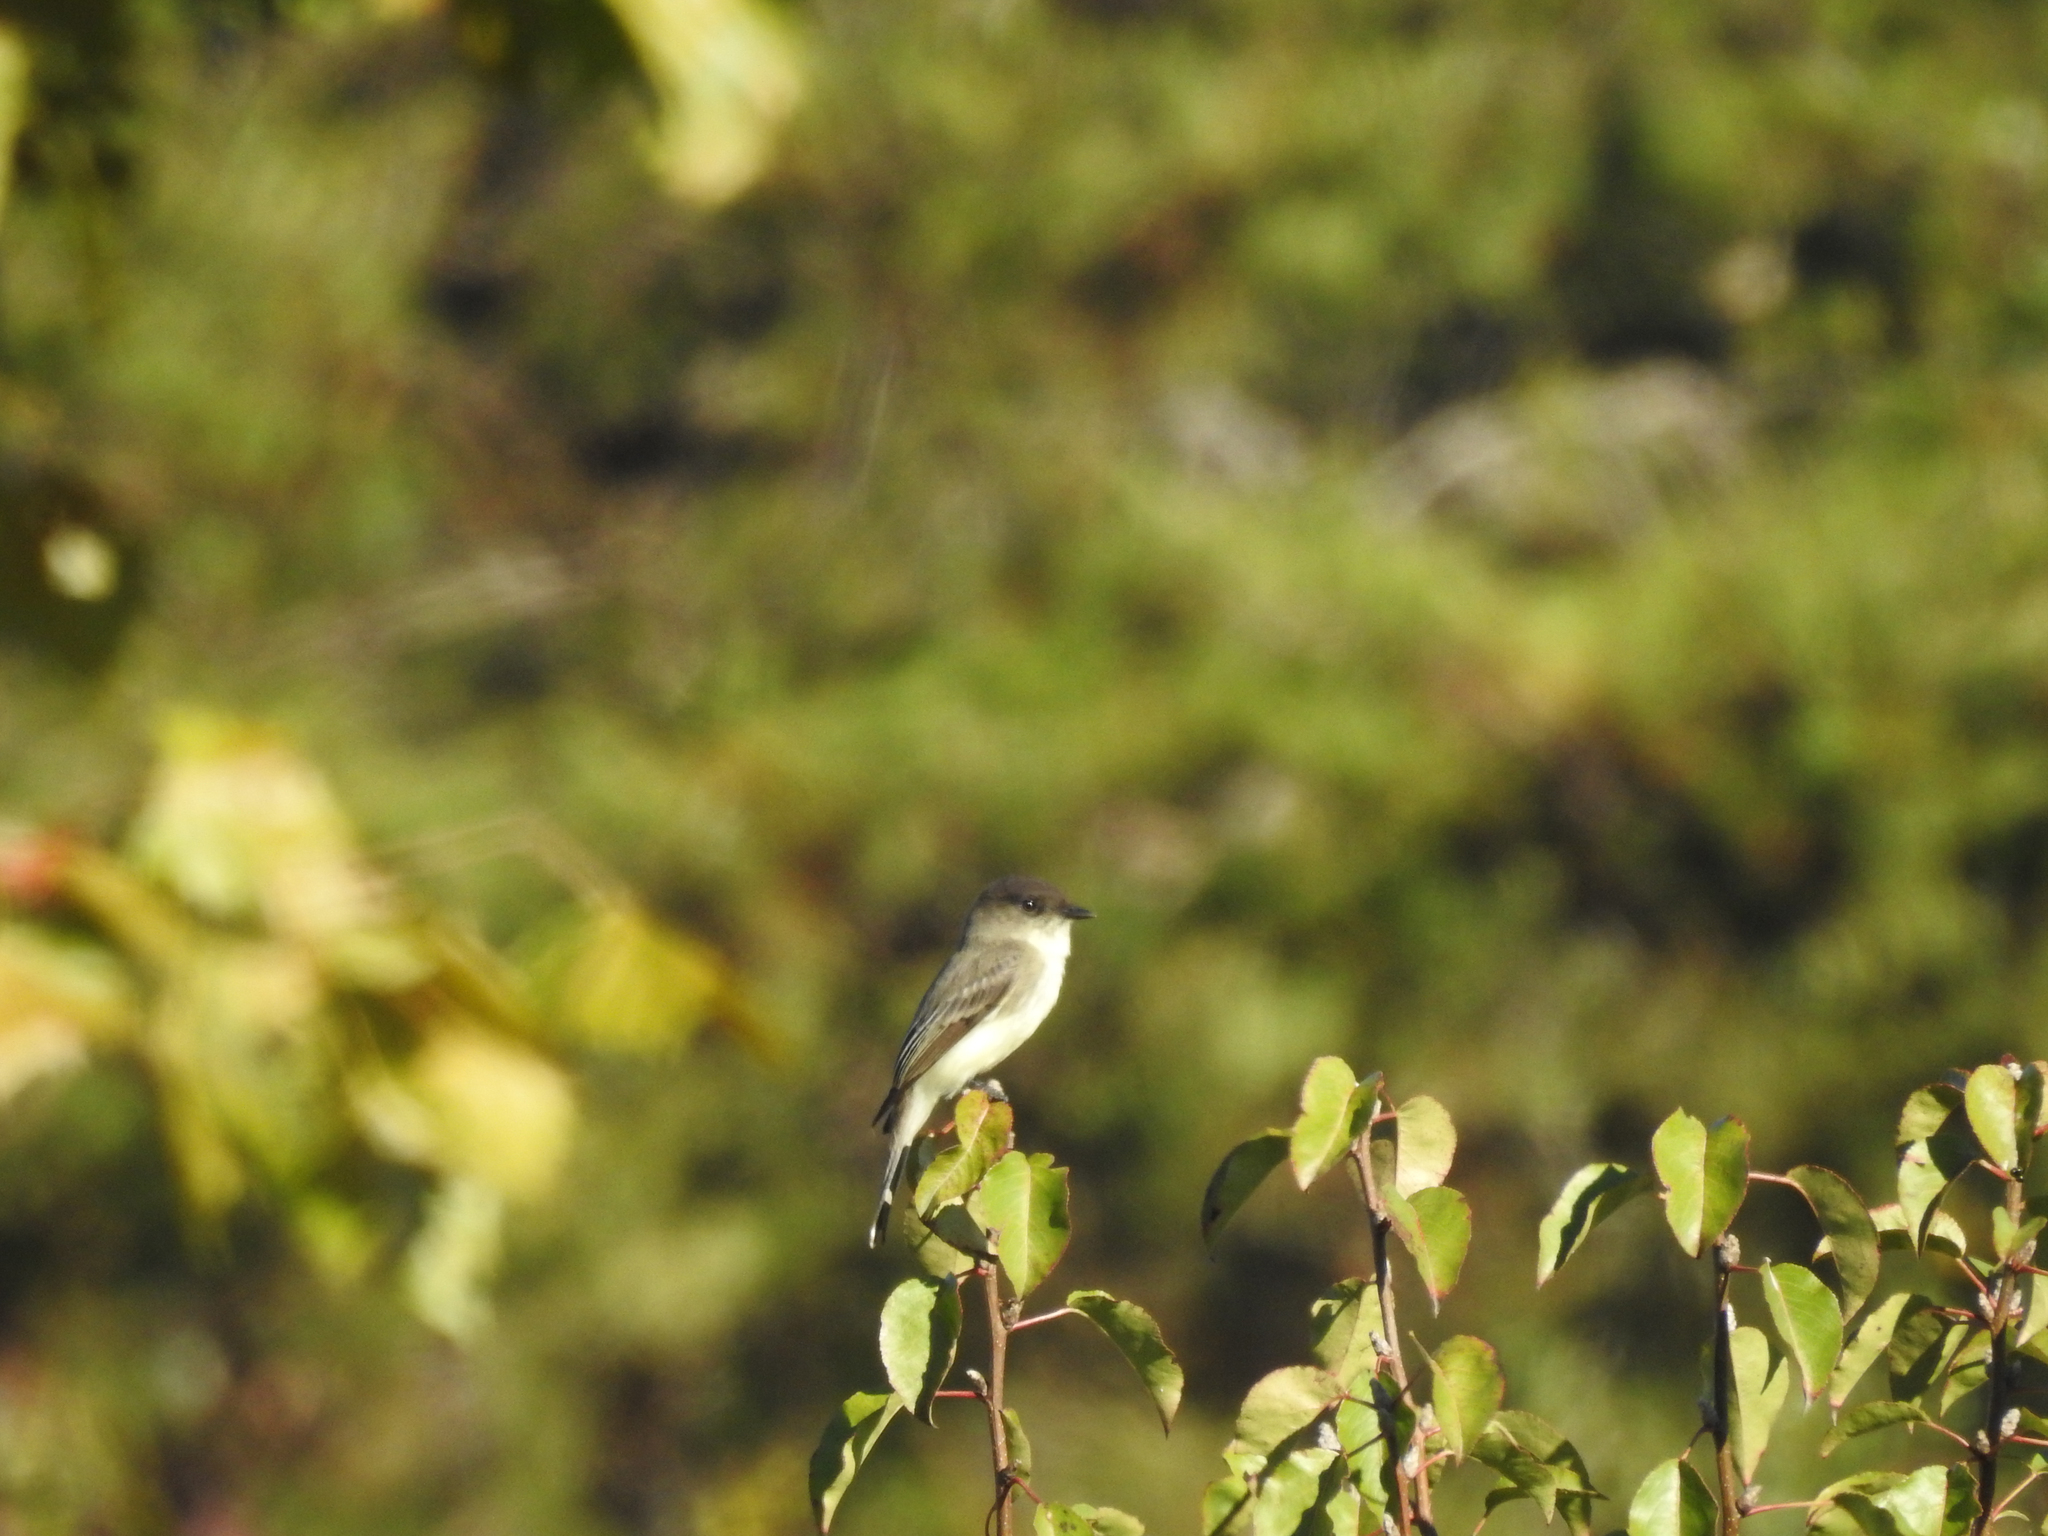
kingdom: Animalia
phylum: Chordata
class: Aves
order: Passeriformes
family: Tyrannidae
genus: Sayornis
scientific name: Sayornis phoebe
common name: Eastern phoebe
